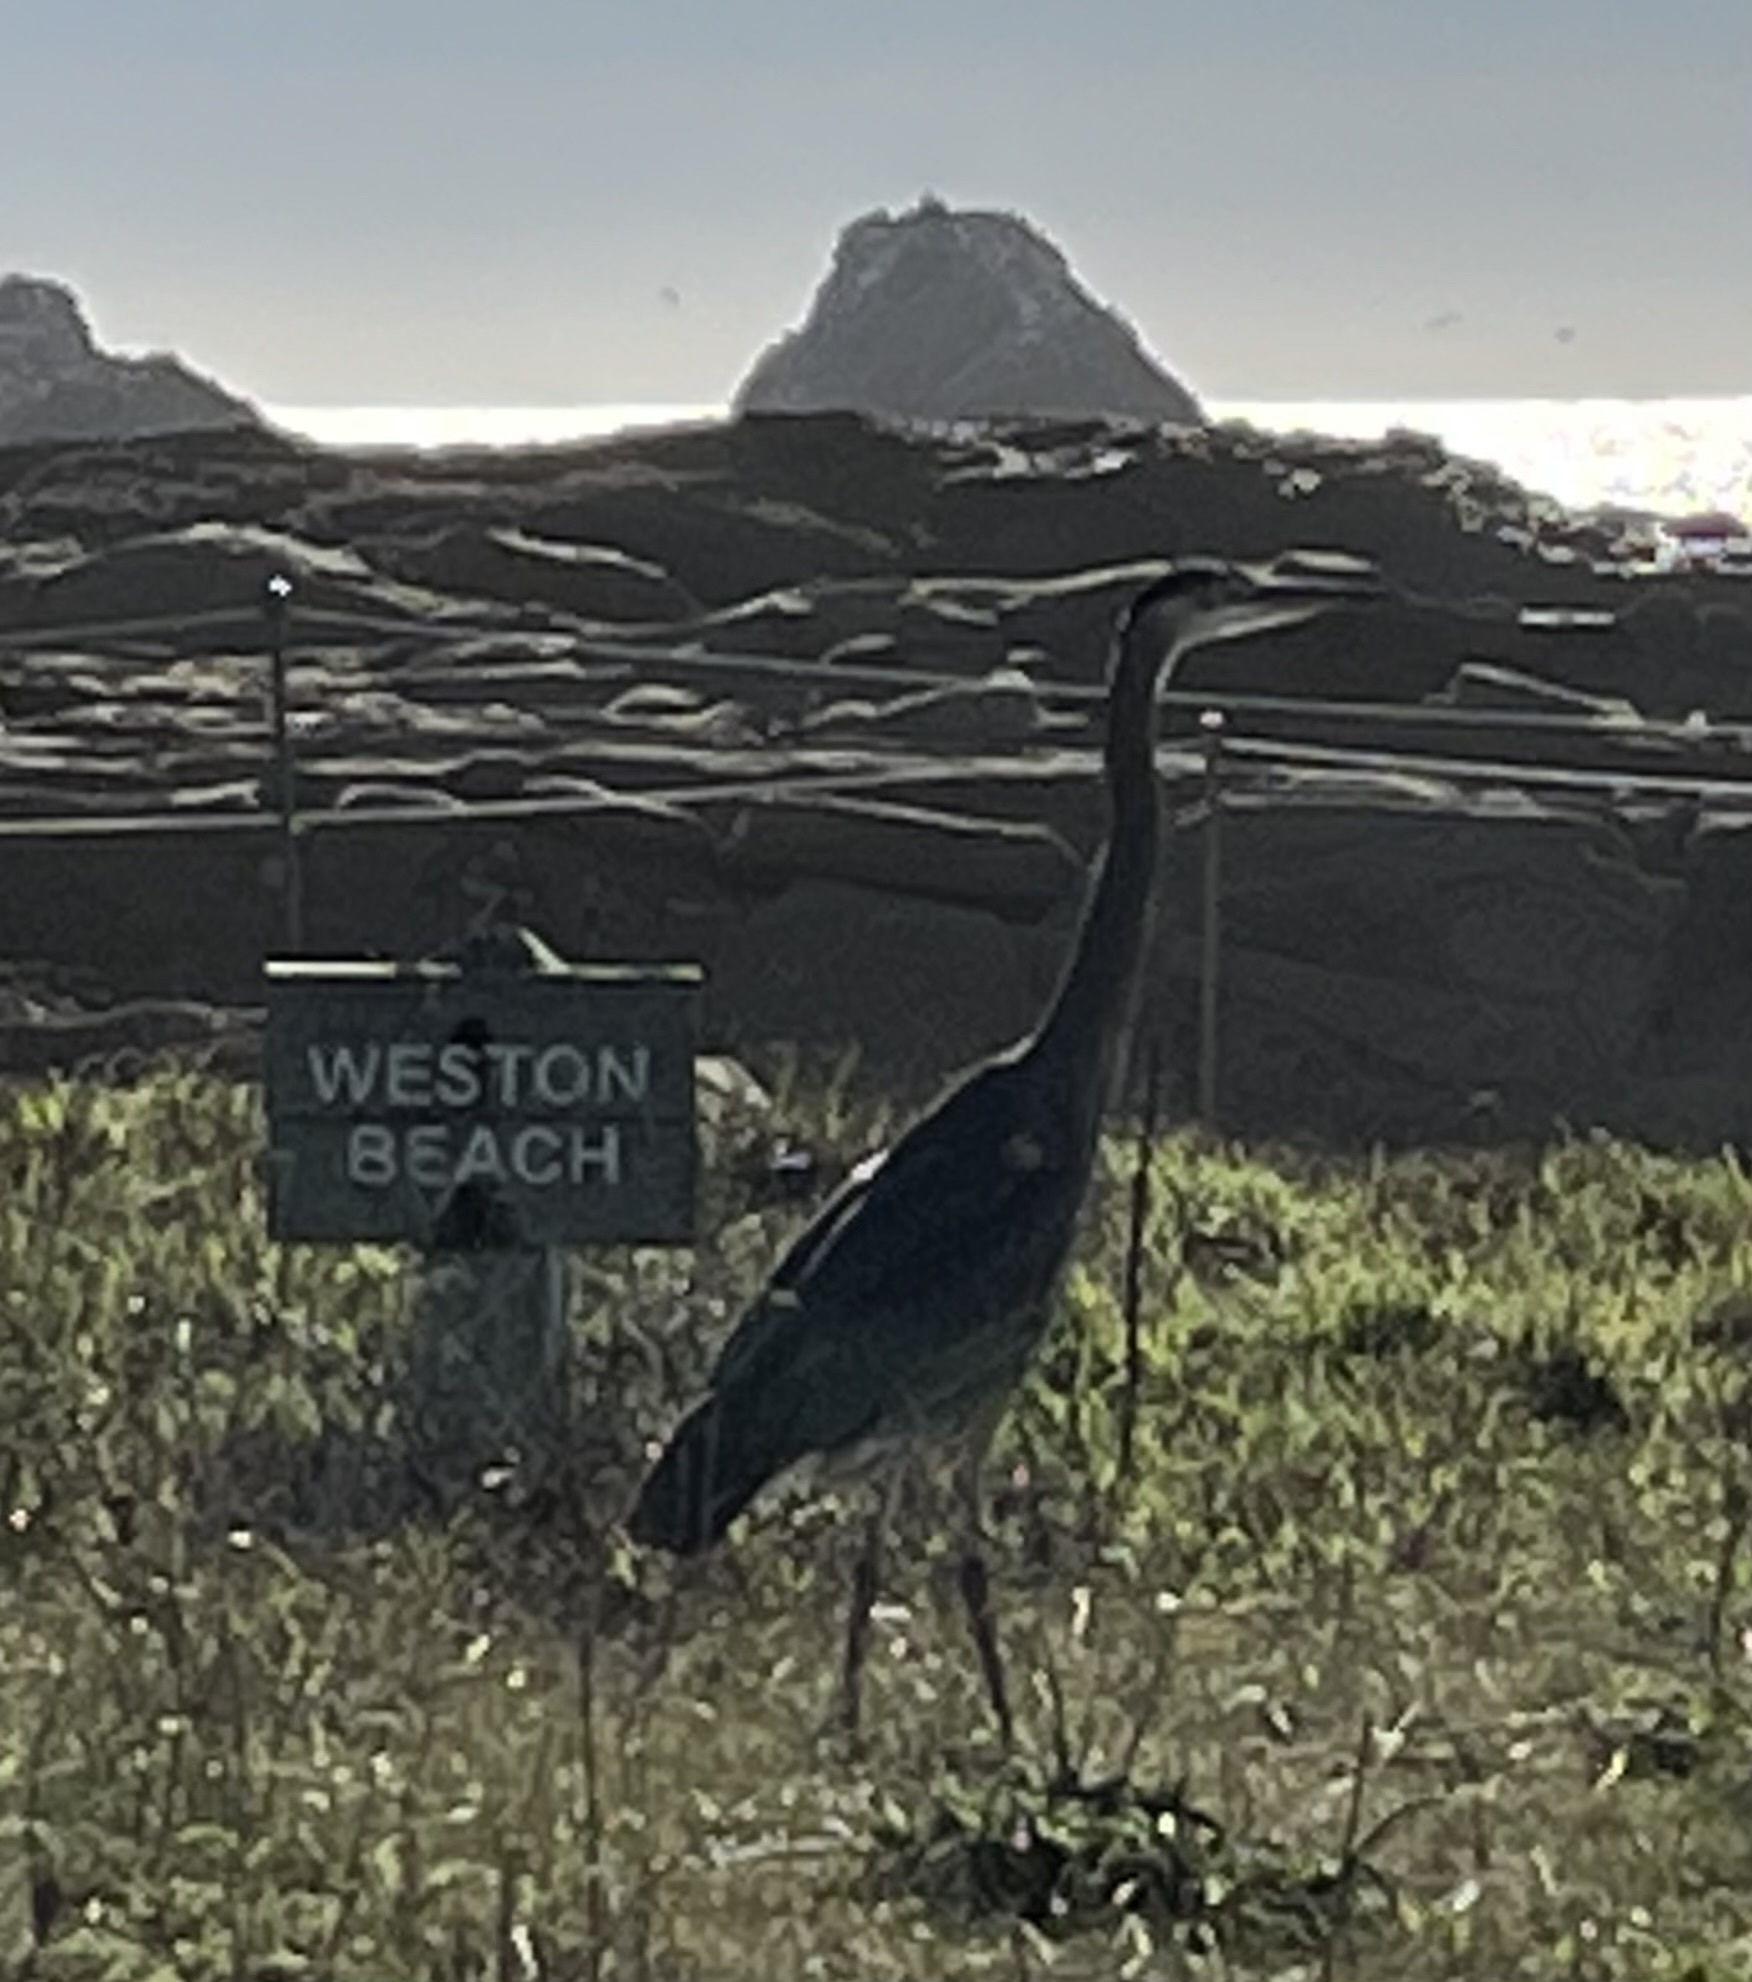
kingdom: Animalia
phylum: Chordata
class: Aves
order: Pelecaniformes
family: Ardeidae
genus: Ardea
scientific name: Ardea herodias
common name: Great blue heron
